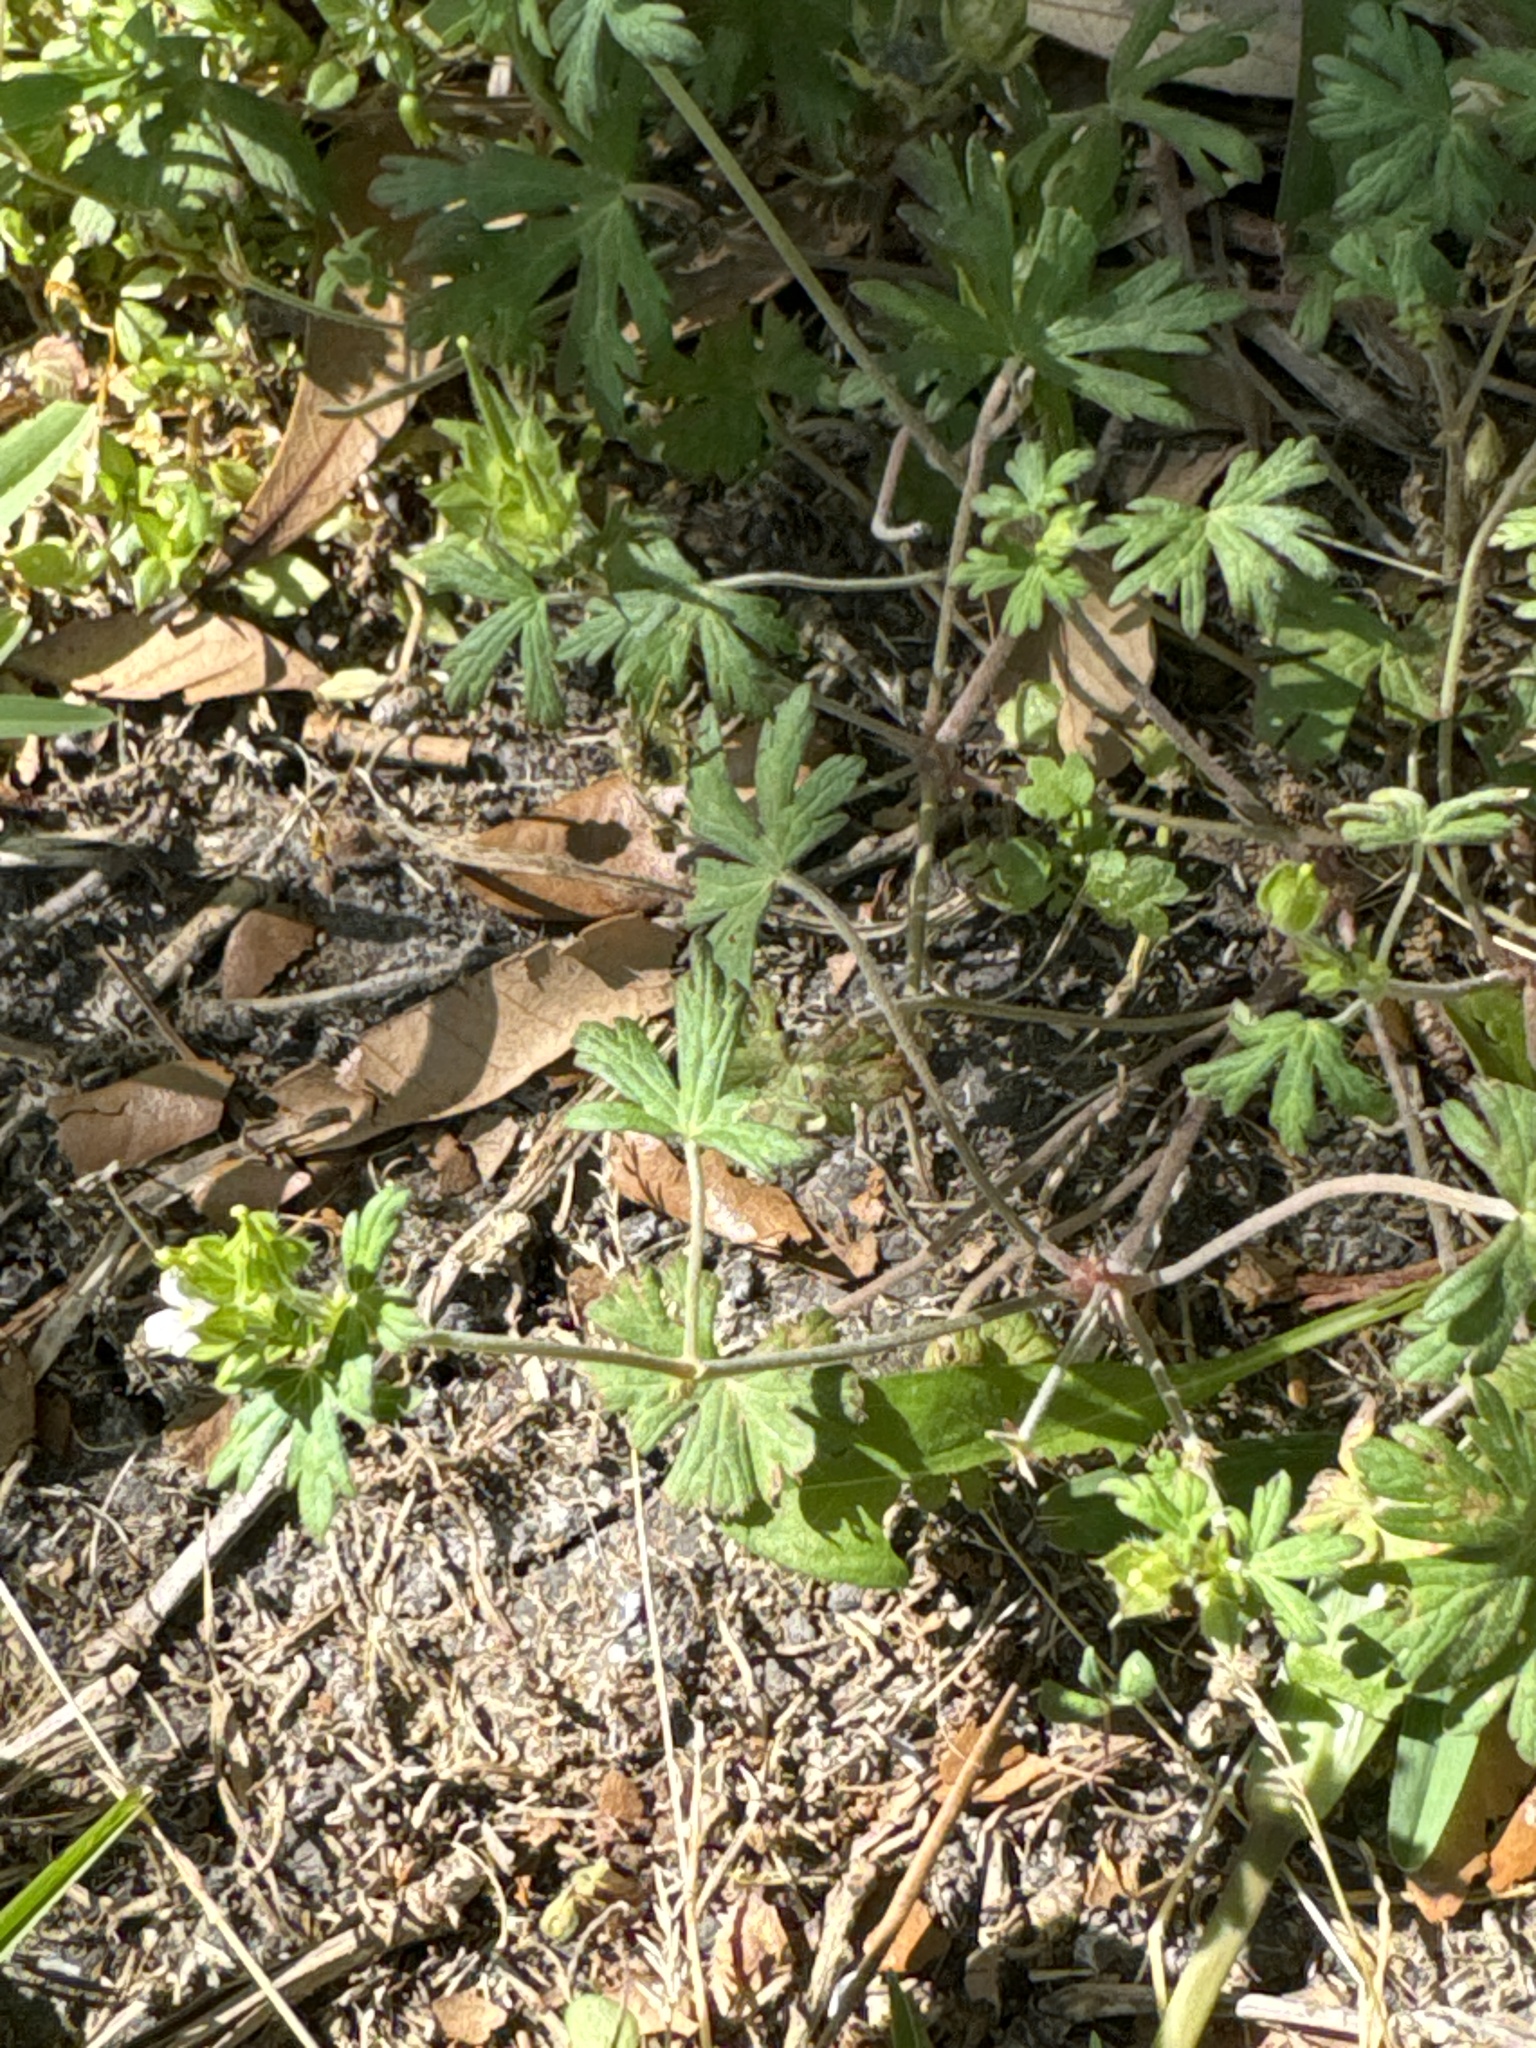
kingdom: Plantae
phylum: Tracheophyta
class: Magnoliopsida
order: Geraniales
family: Geraniaceae
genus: Geranium
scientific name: Geranium carolinianum
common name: Carolina crane's-bill
